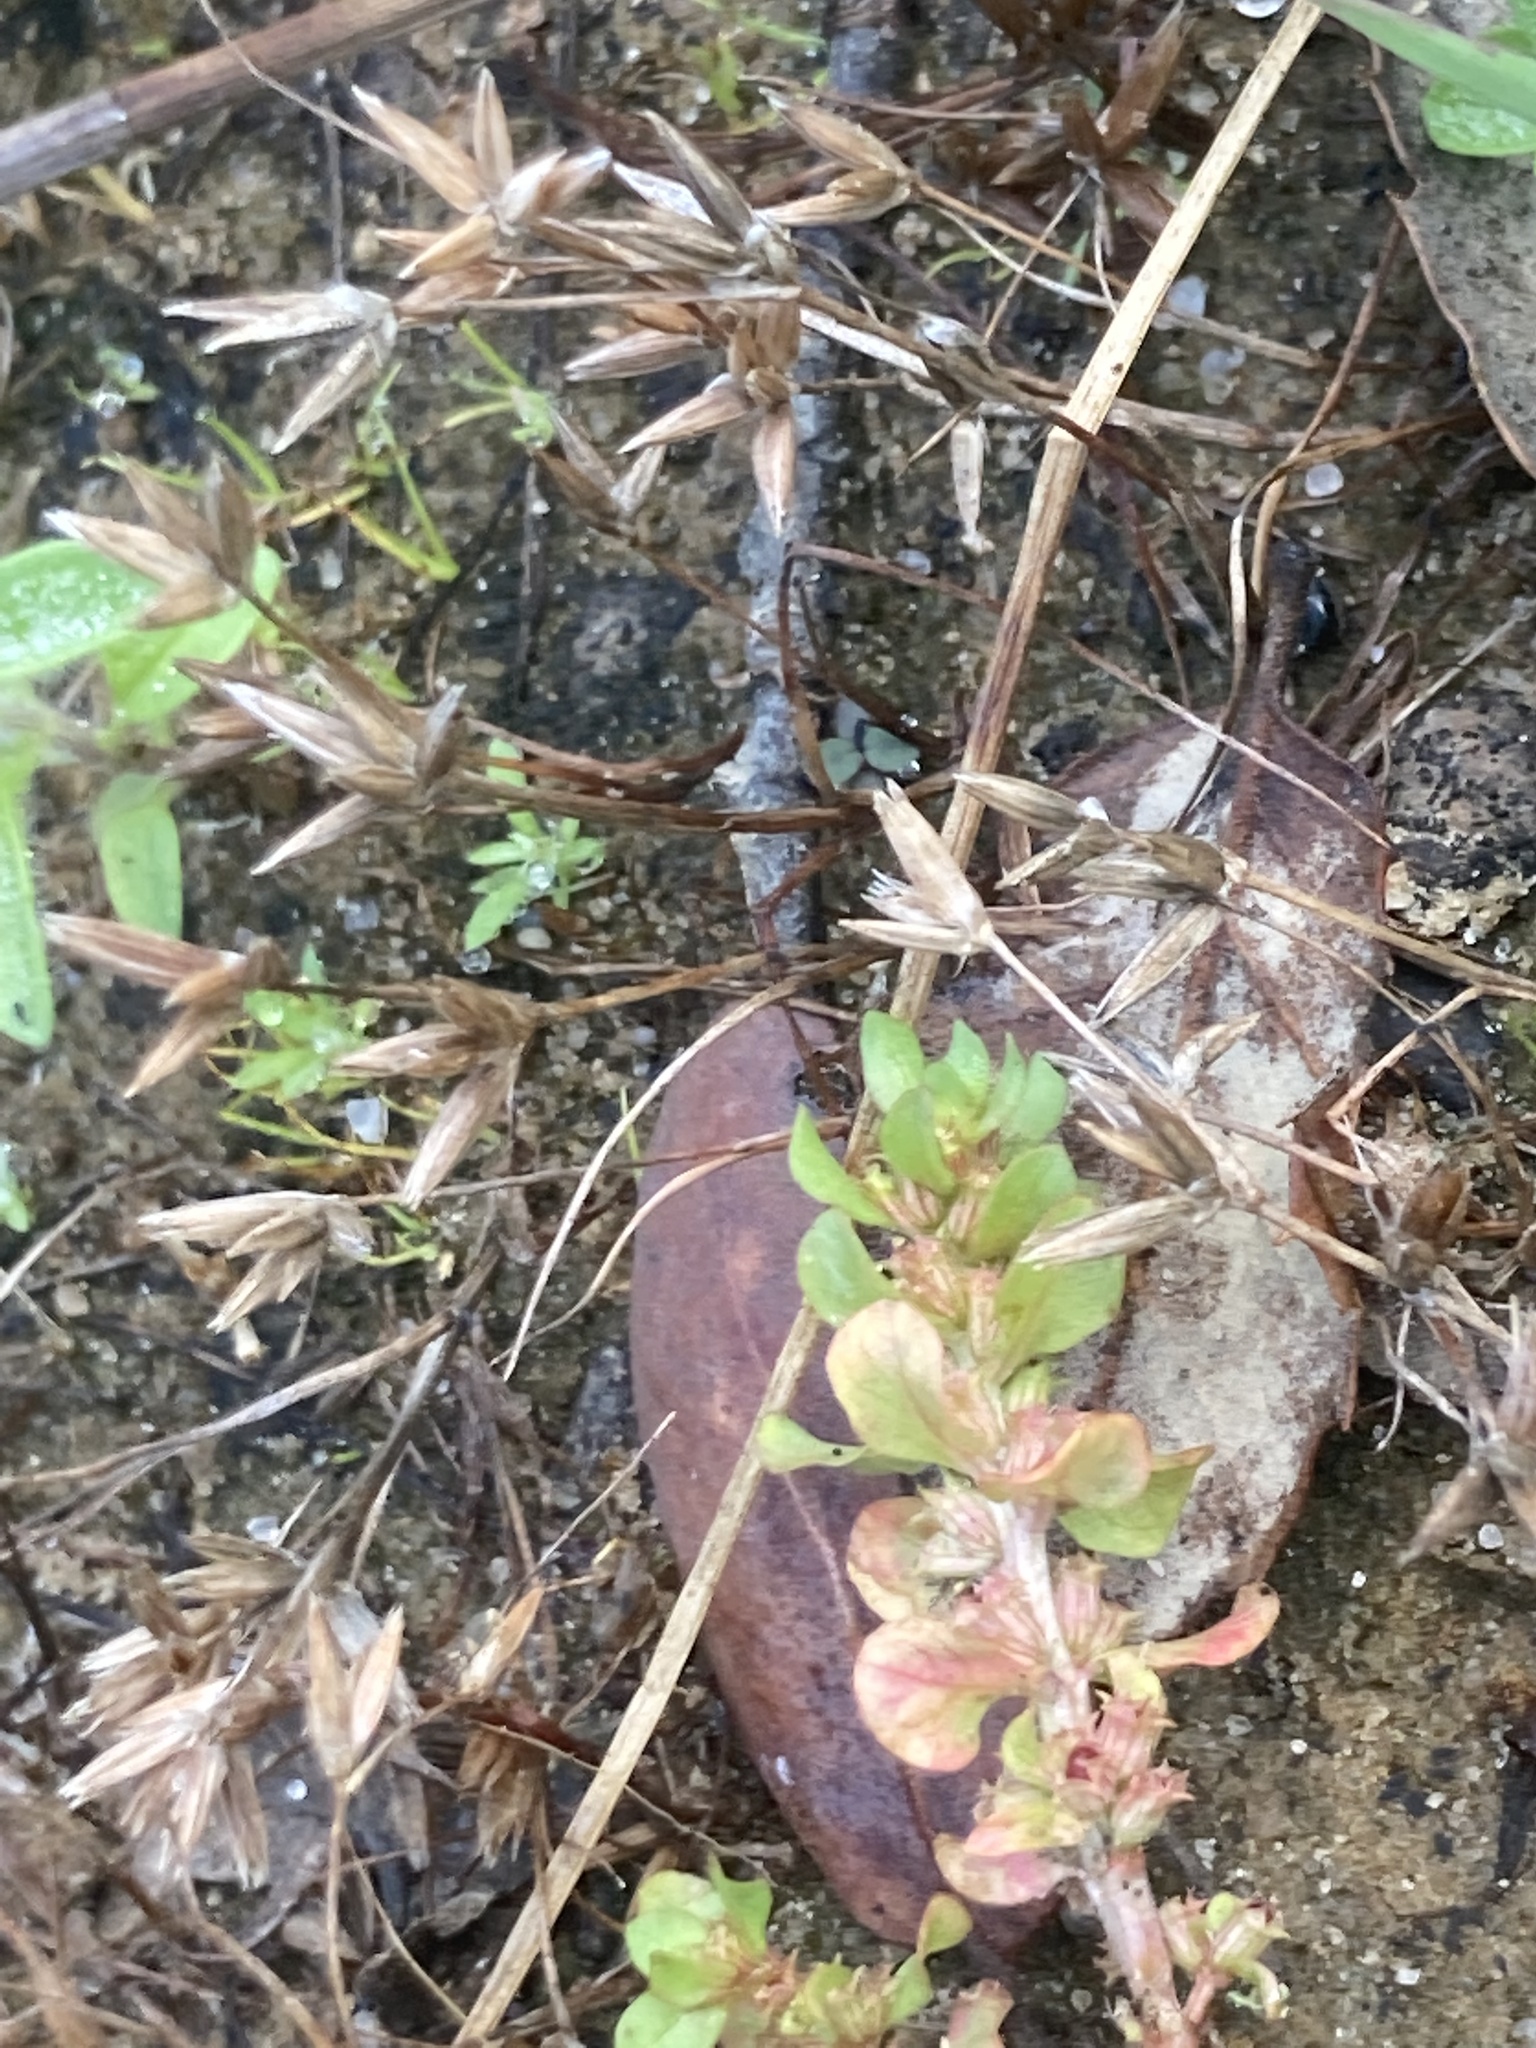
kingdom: Plantae
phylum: Tracheophyta
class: Liliopsida
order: Poales
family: Juncaceae
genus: Juncus
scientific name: Juncus pygmaeus
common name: Pigmy rush
